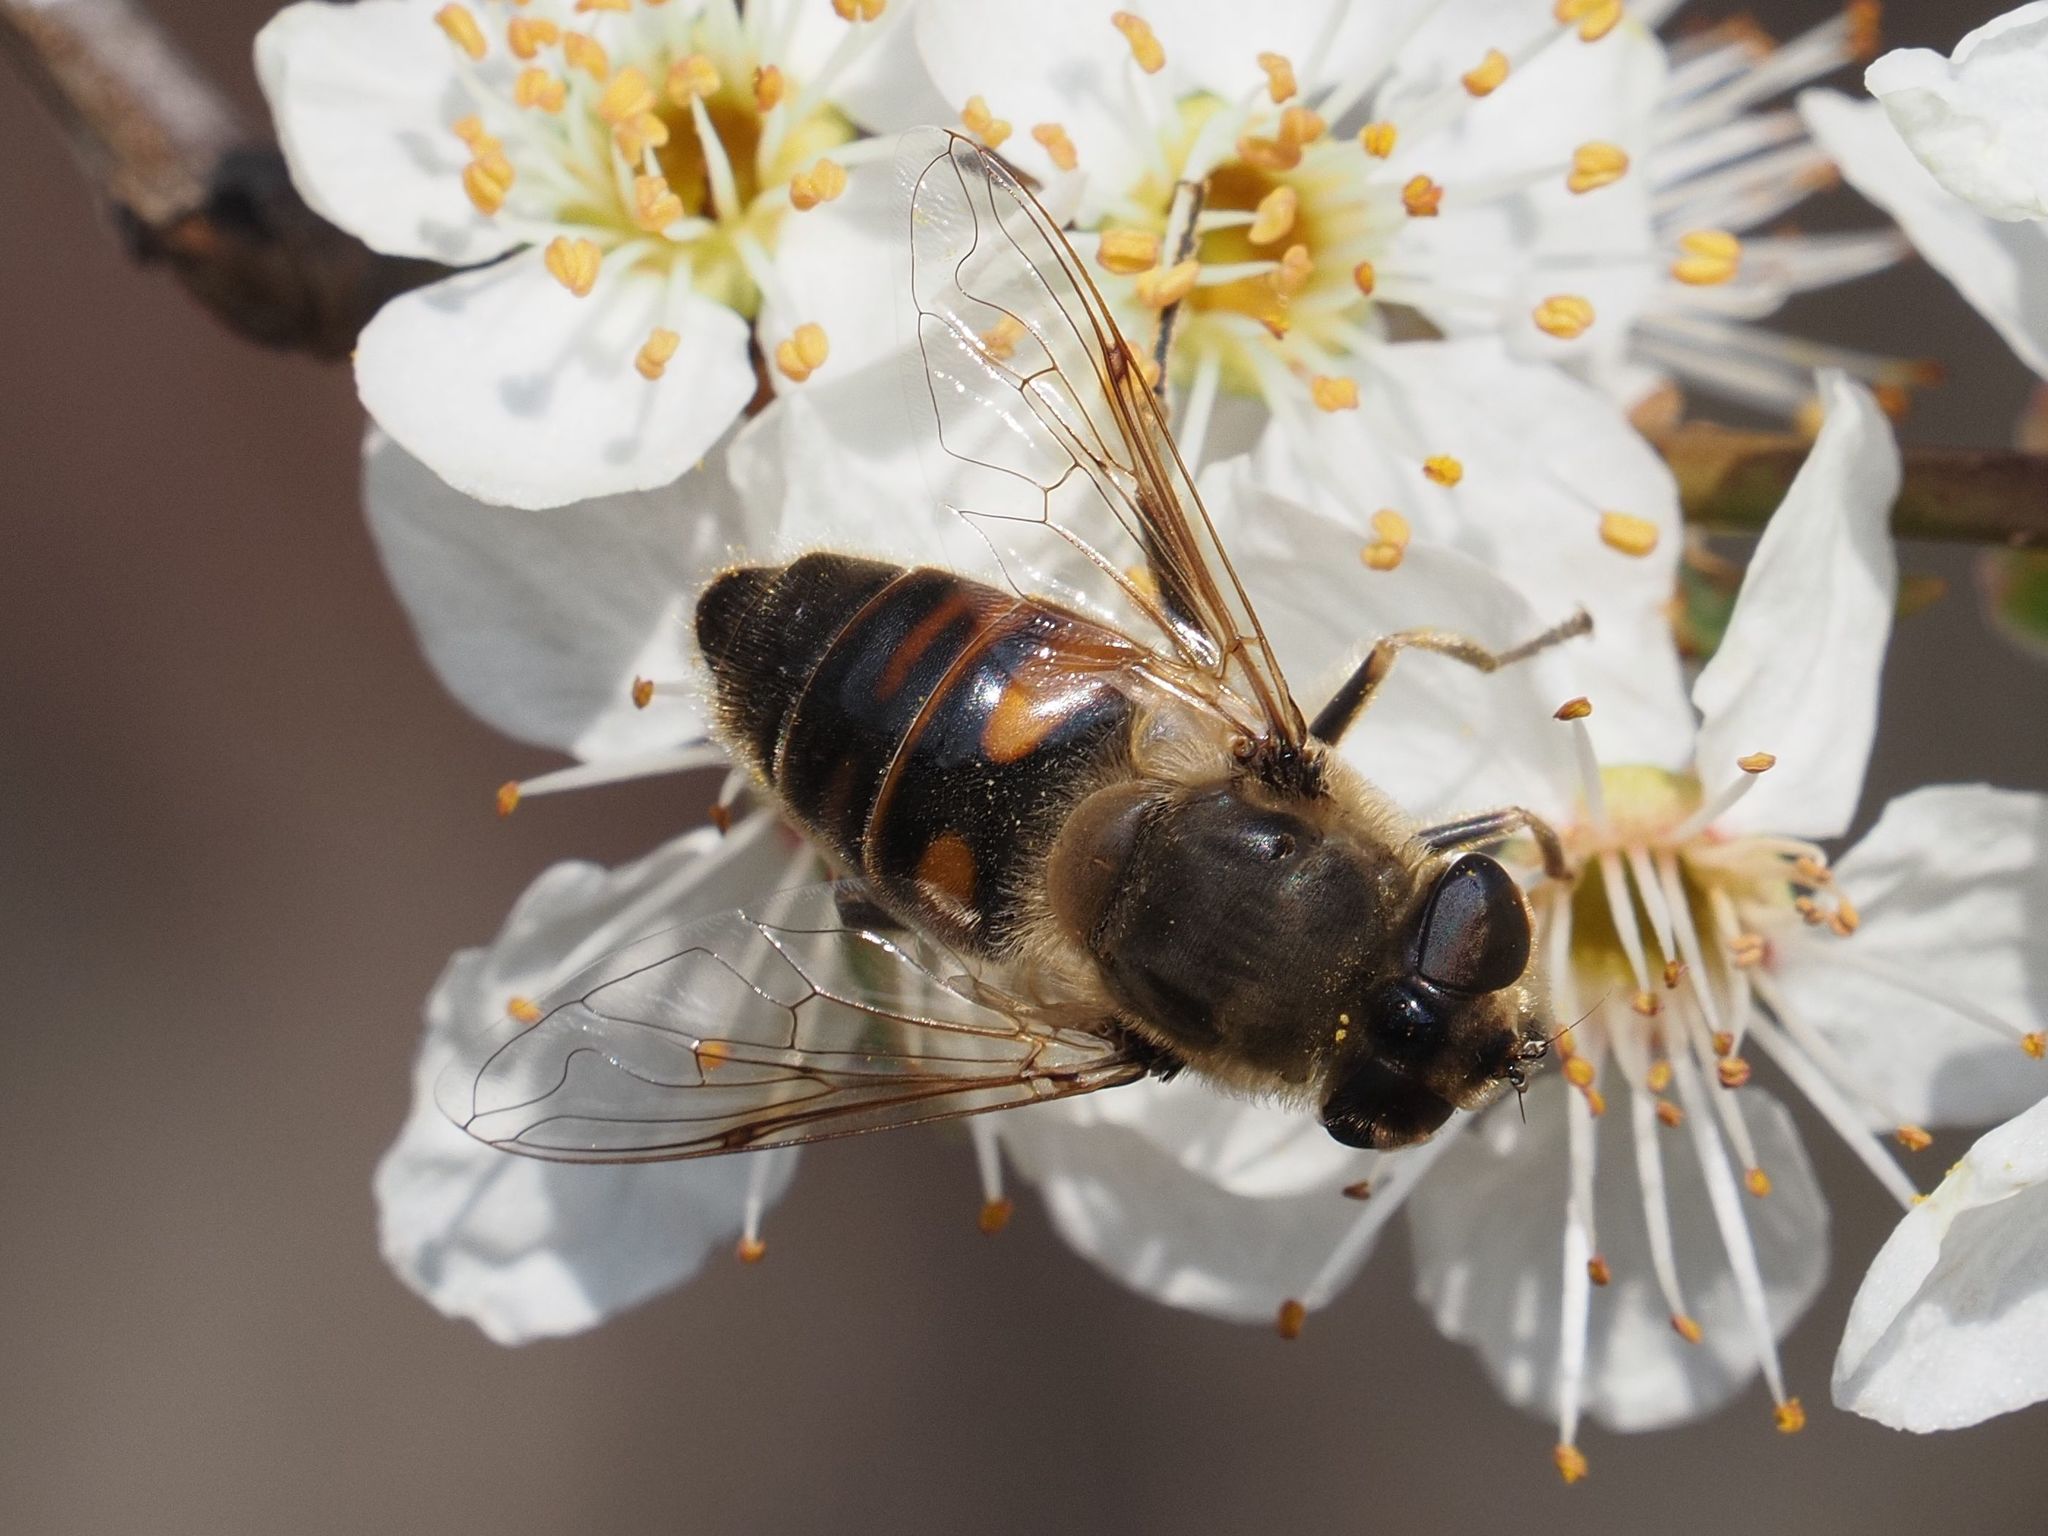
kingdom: Animalia
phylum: Arthropoda
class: Insecta
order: Diptera
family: Syrphidae
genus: Eristalis
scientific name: Eristalis tenax
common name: Drone fly
